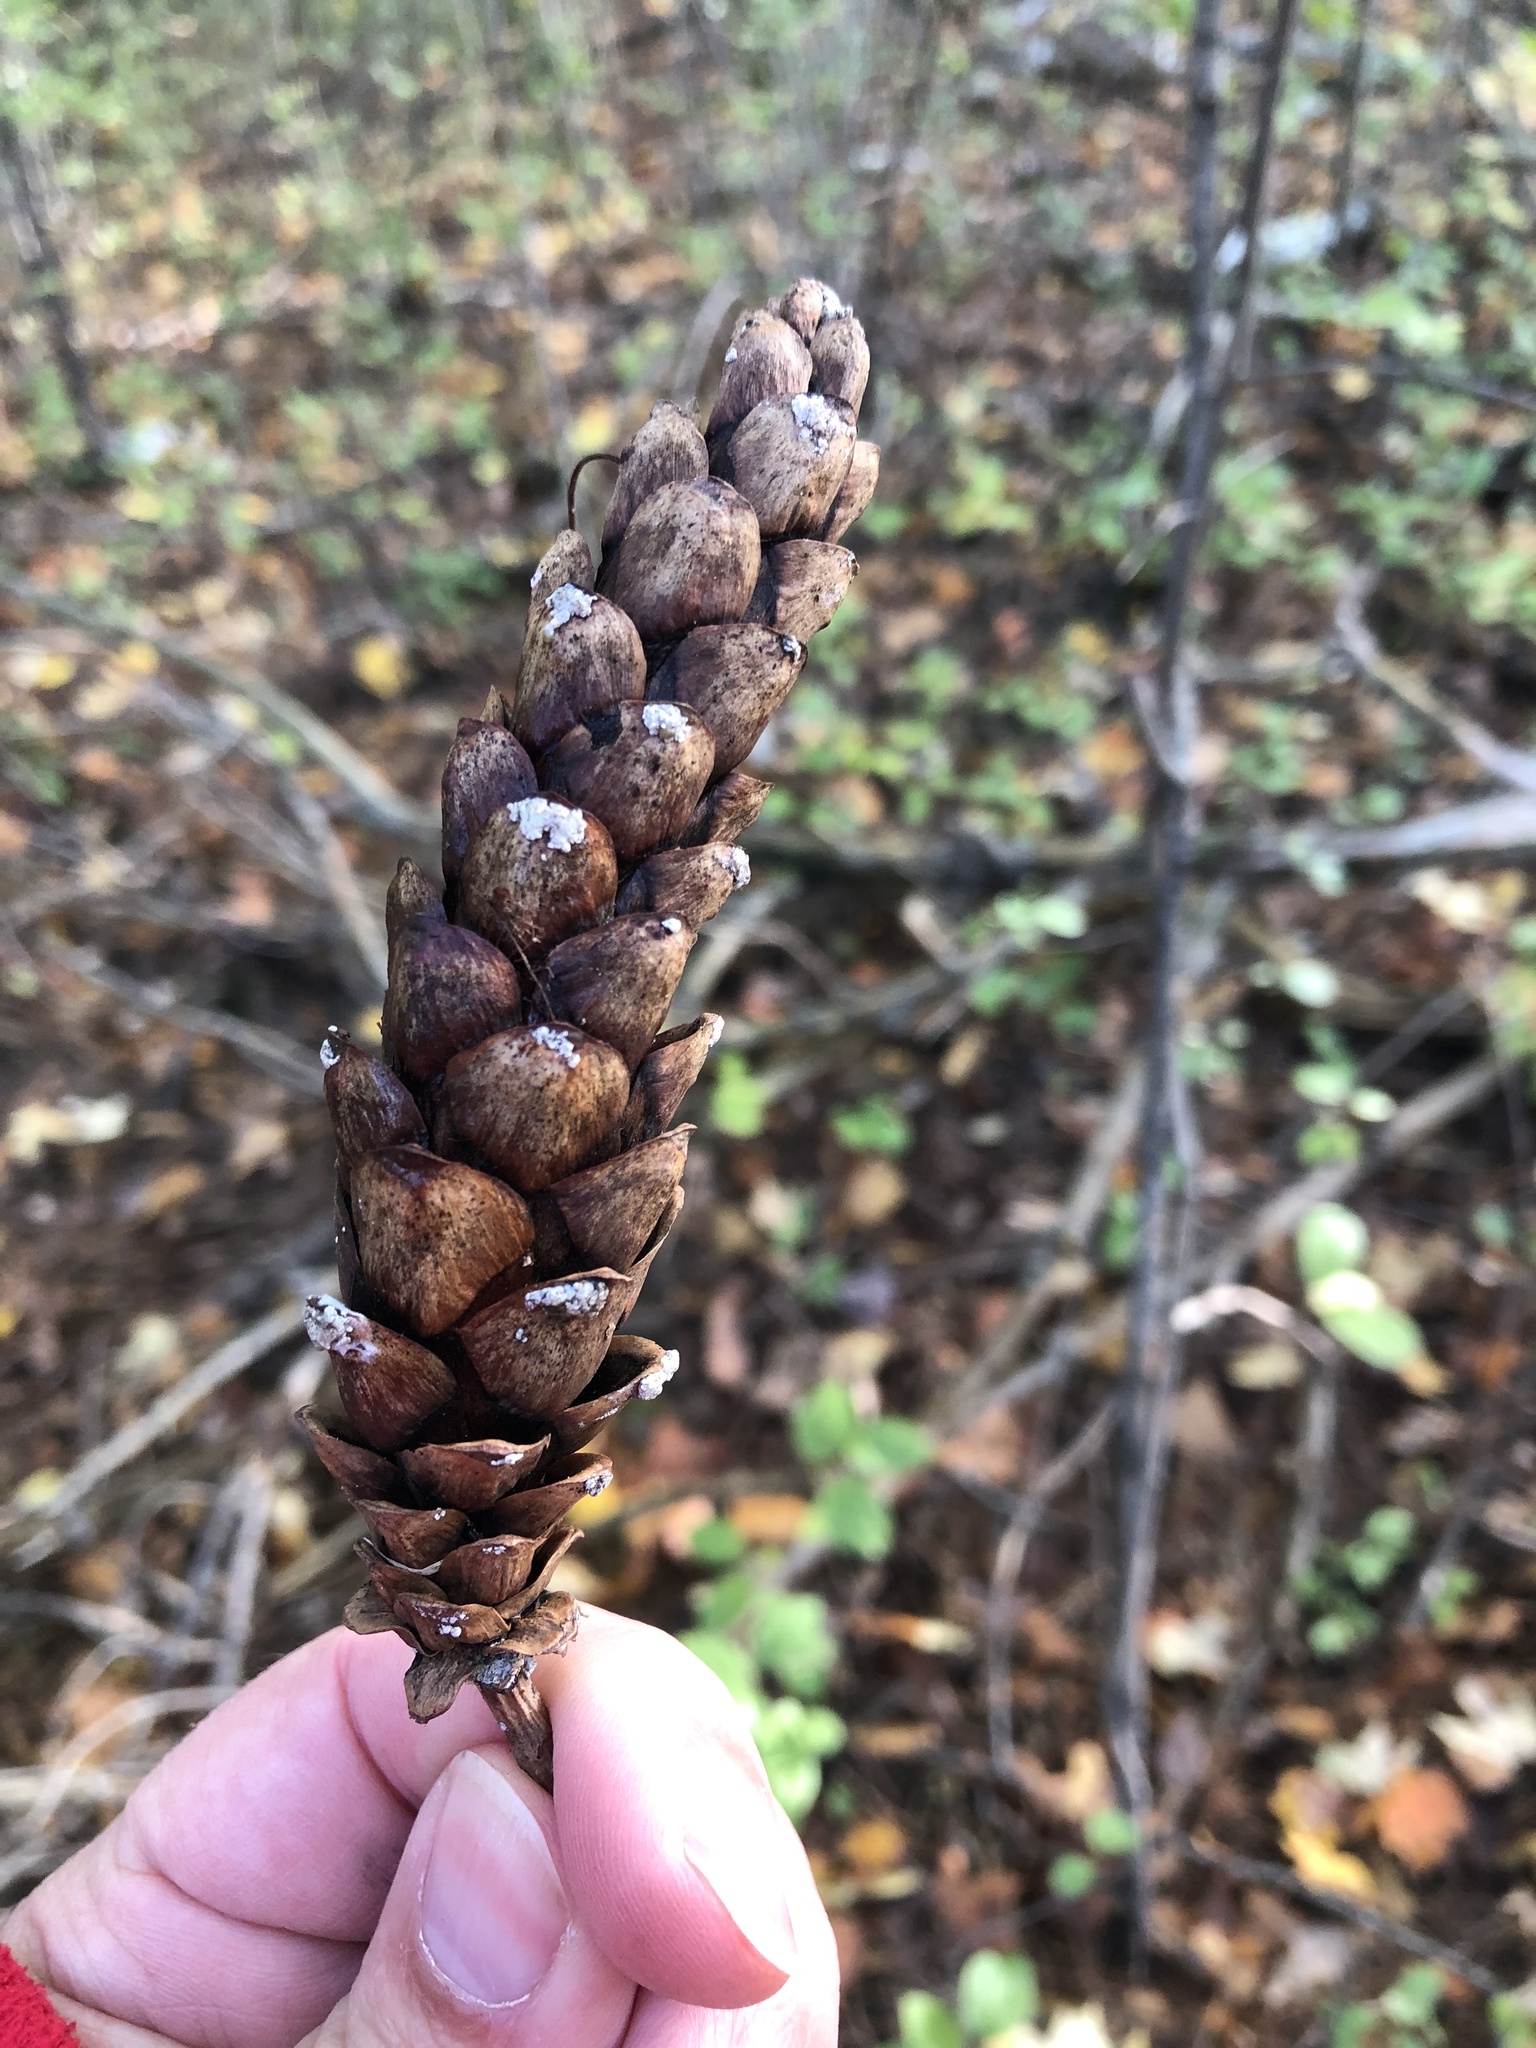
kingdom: Plantae
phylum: Tracheophyta
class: Pinopsida
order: Pinales
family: Pinaceae
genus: Pinus
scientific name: Pinus strobus
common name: Weymouth pine
